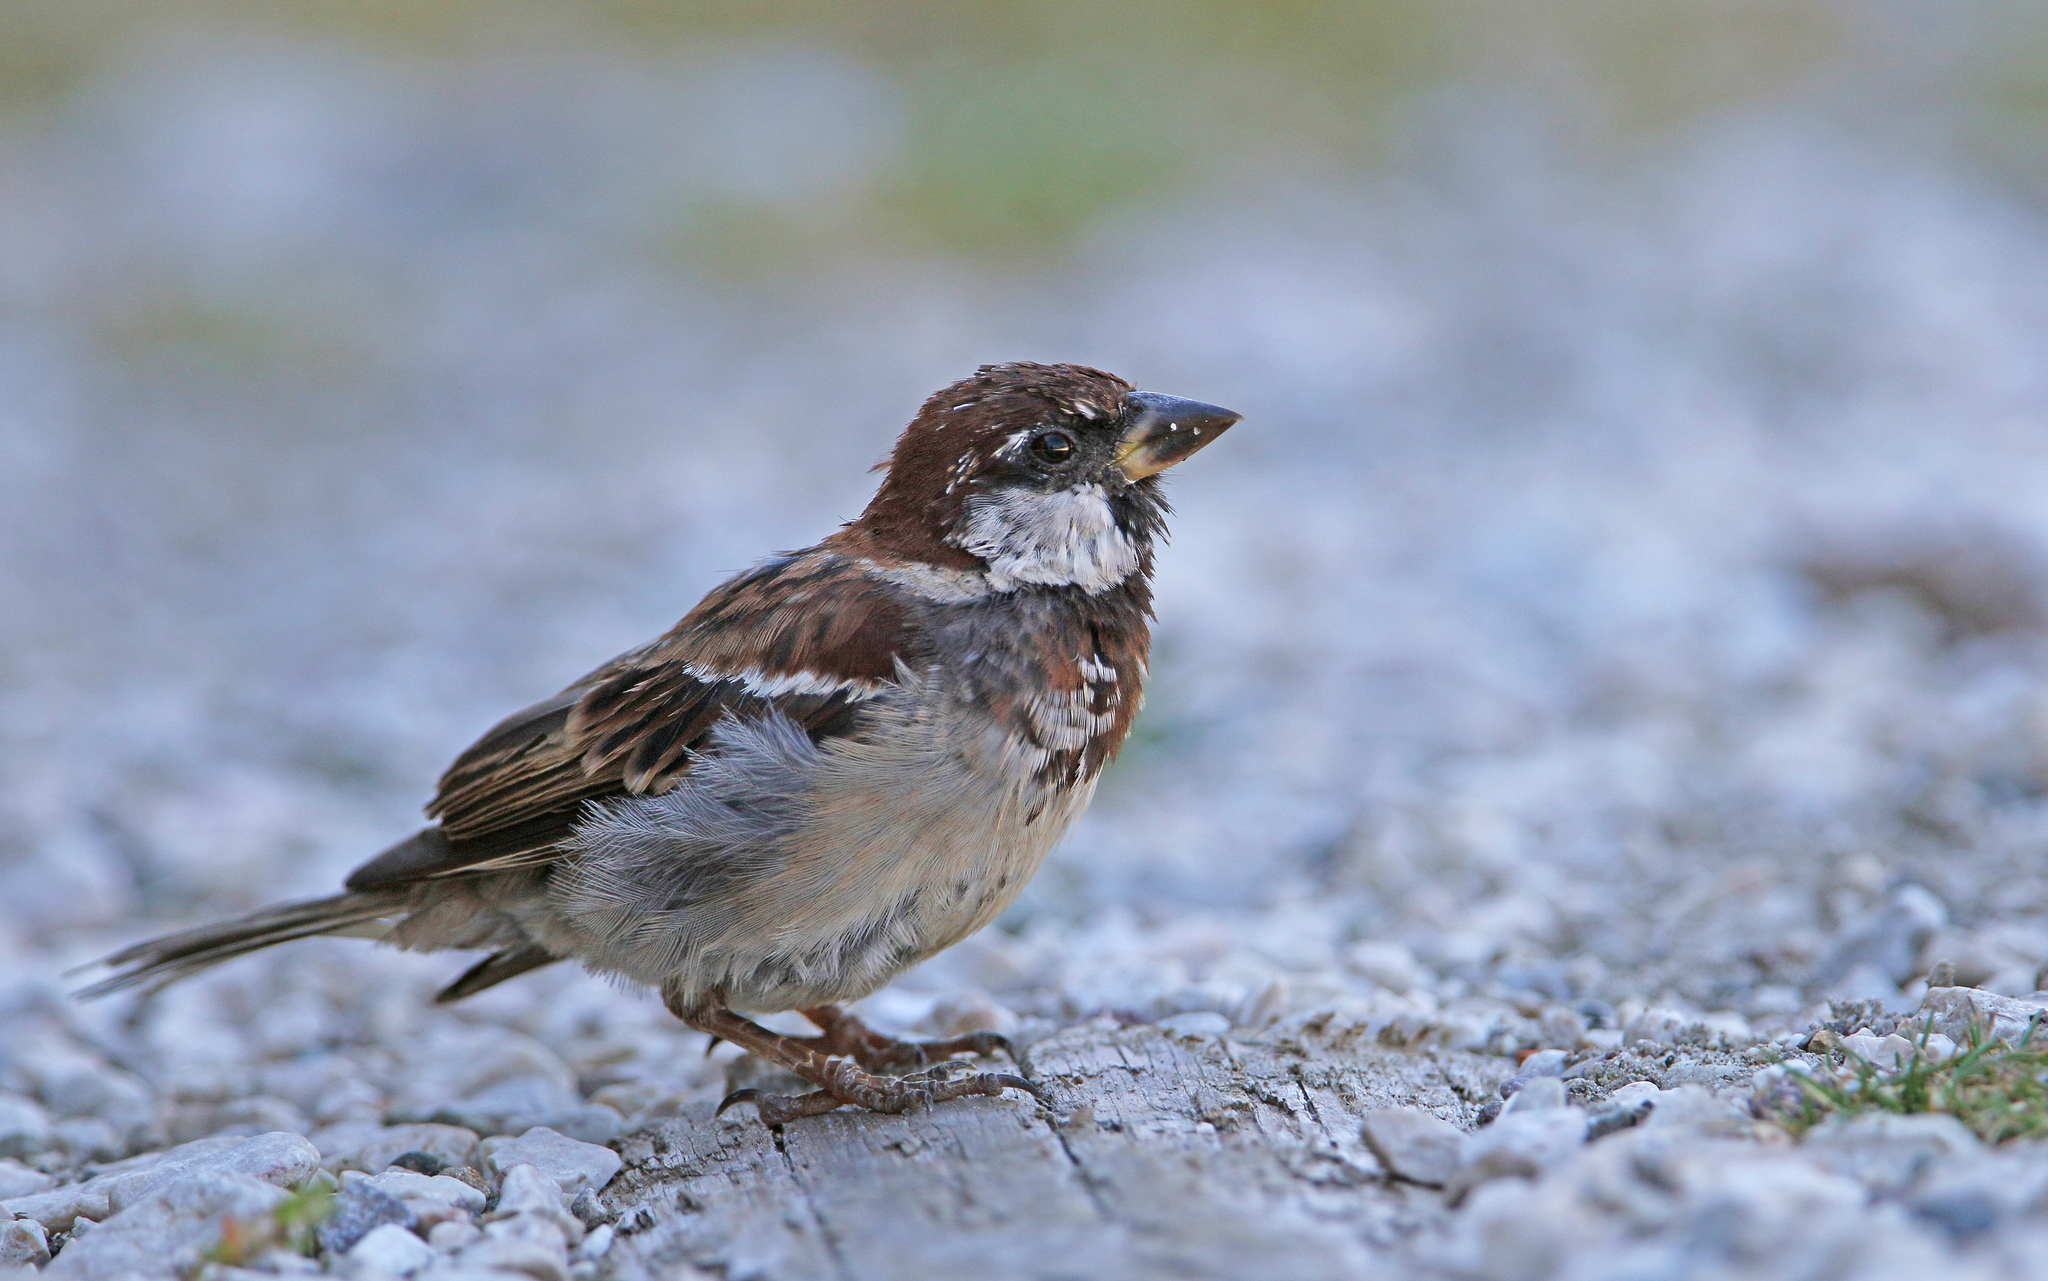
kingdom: Animalia
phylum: Chordata
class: Aves
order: Passeriformes
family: Passeridae
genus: Passer
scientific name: Passer italiae
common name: Italian sparrow
